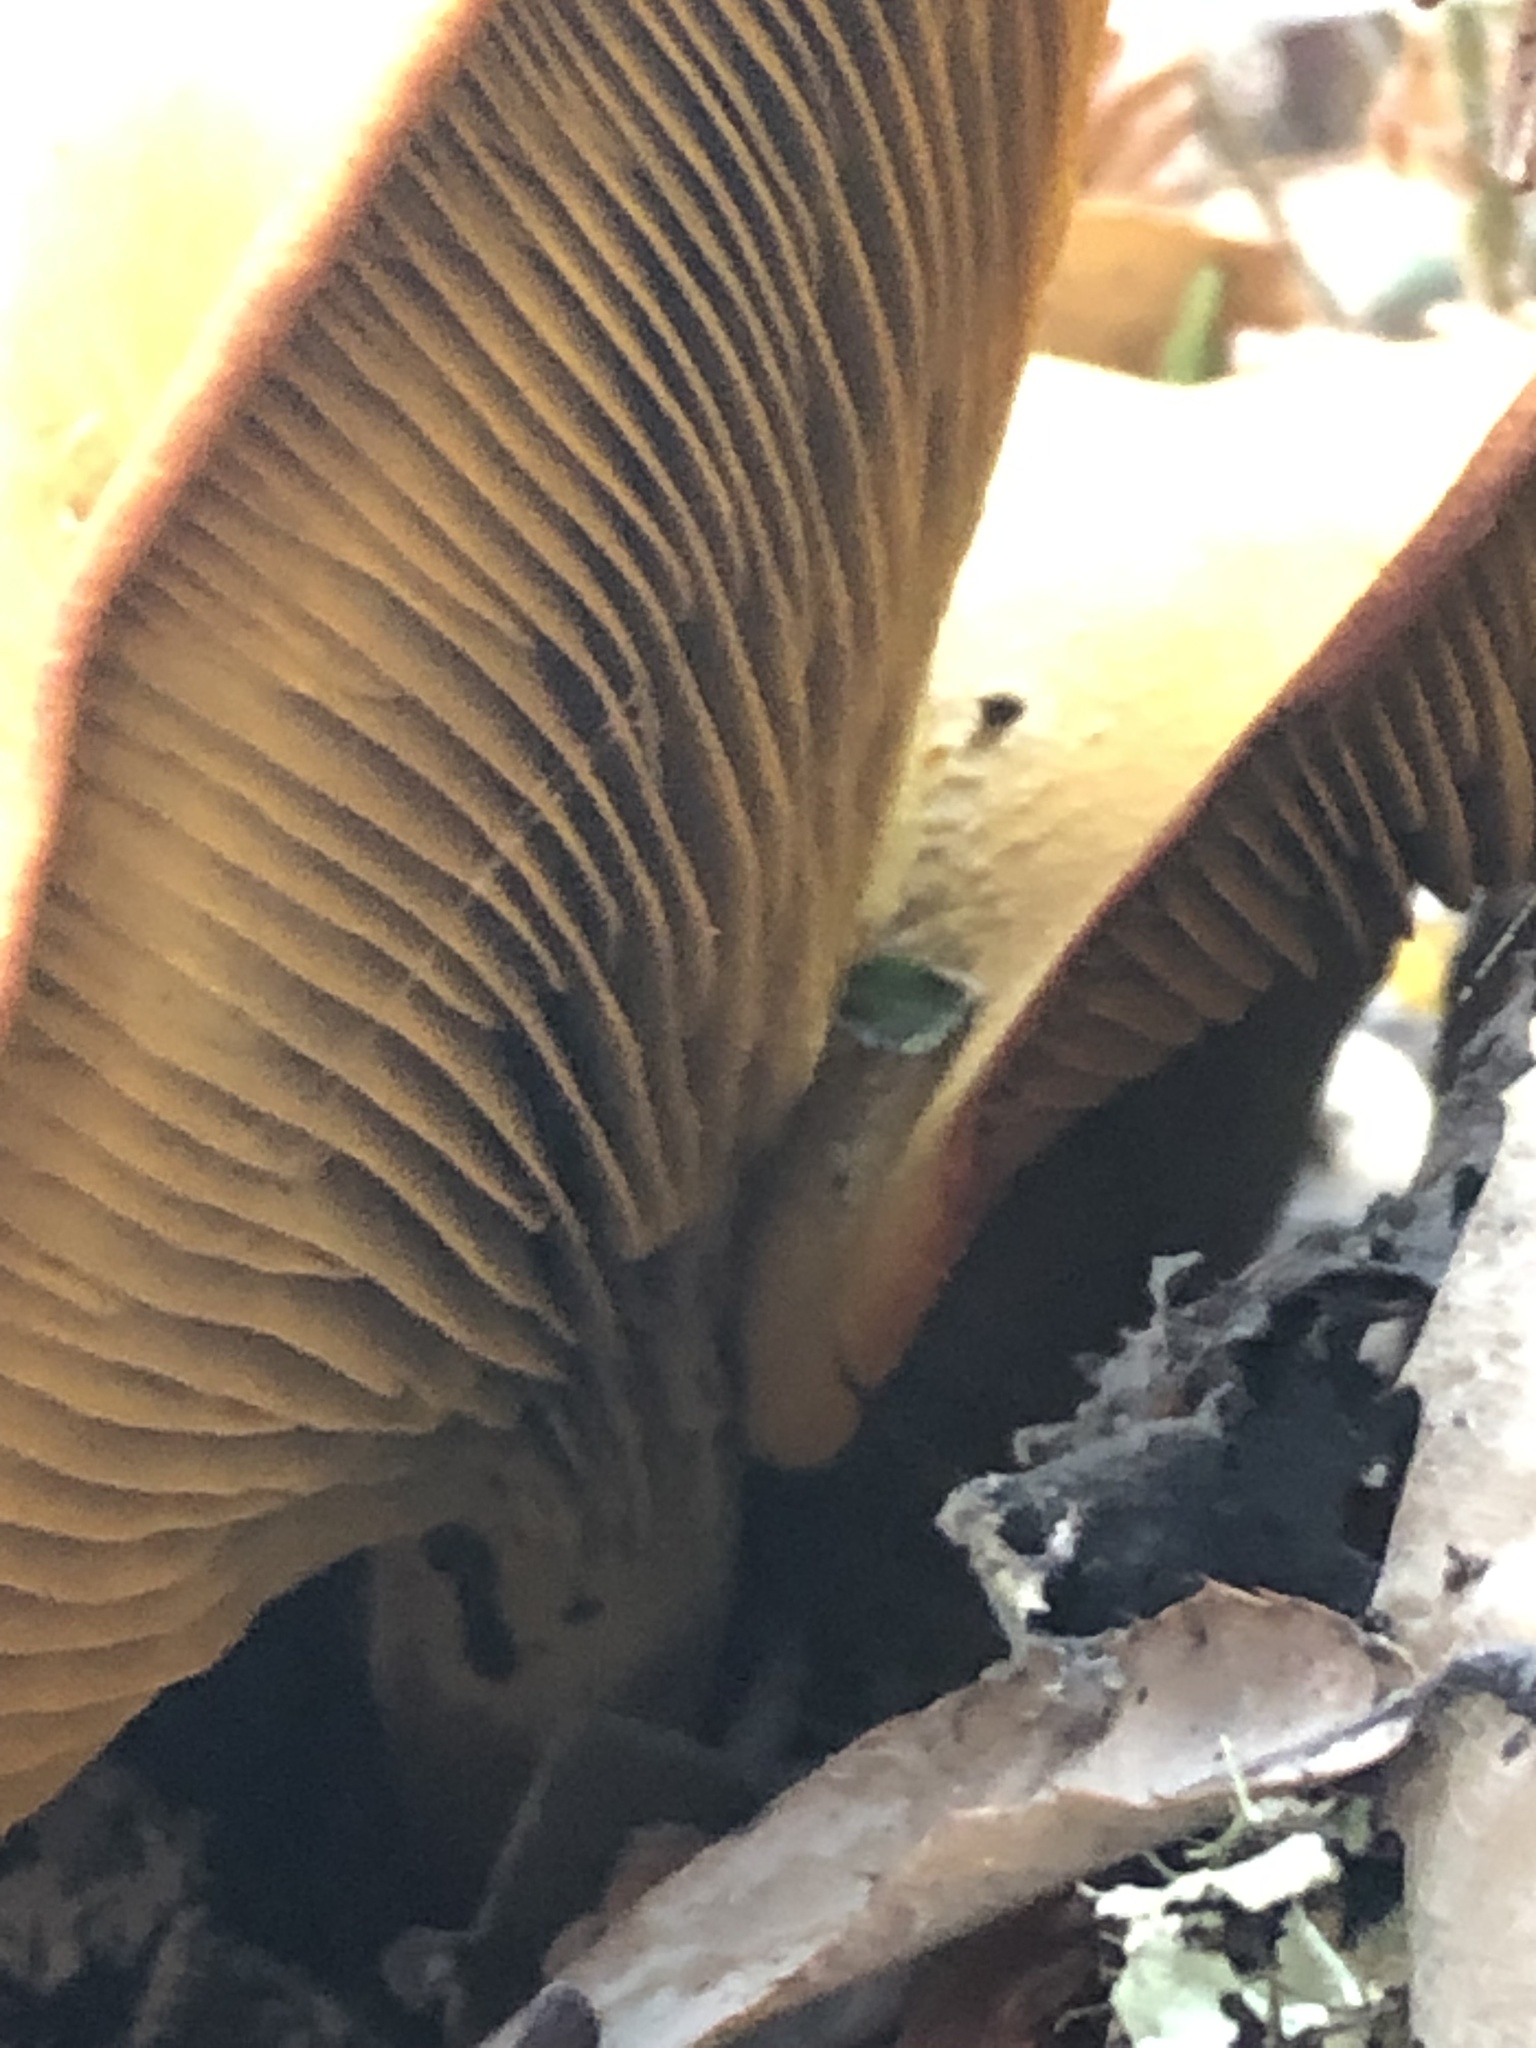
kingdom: Fungi
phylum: Basidiomycota
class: Agaricomycetes
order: Agaricales
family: Omphalotaceae
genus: Omphalotus
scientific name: Omphalotus olivascens
